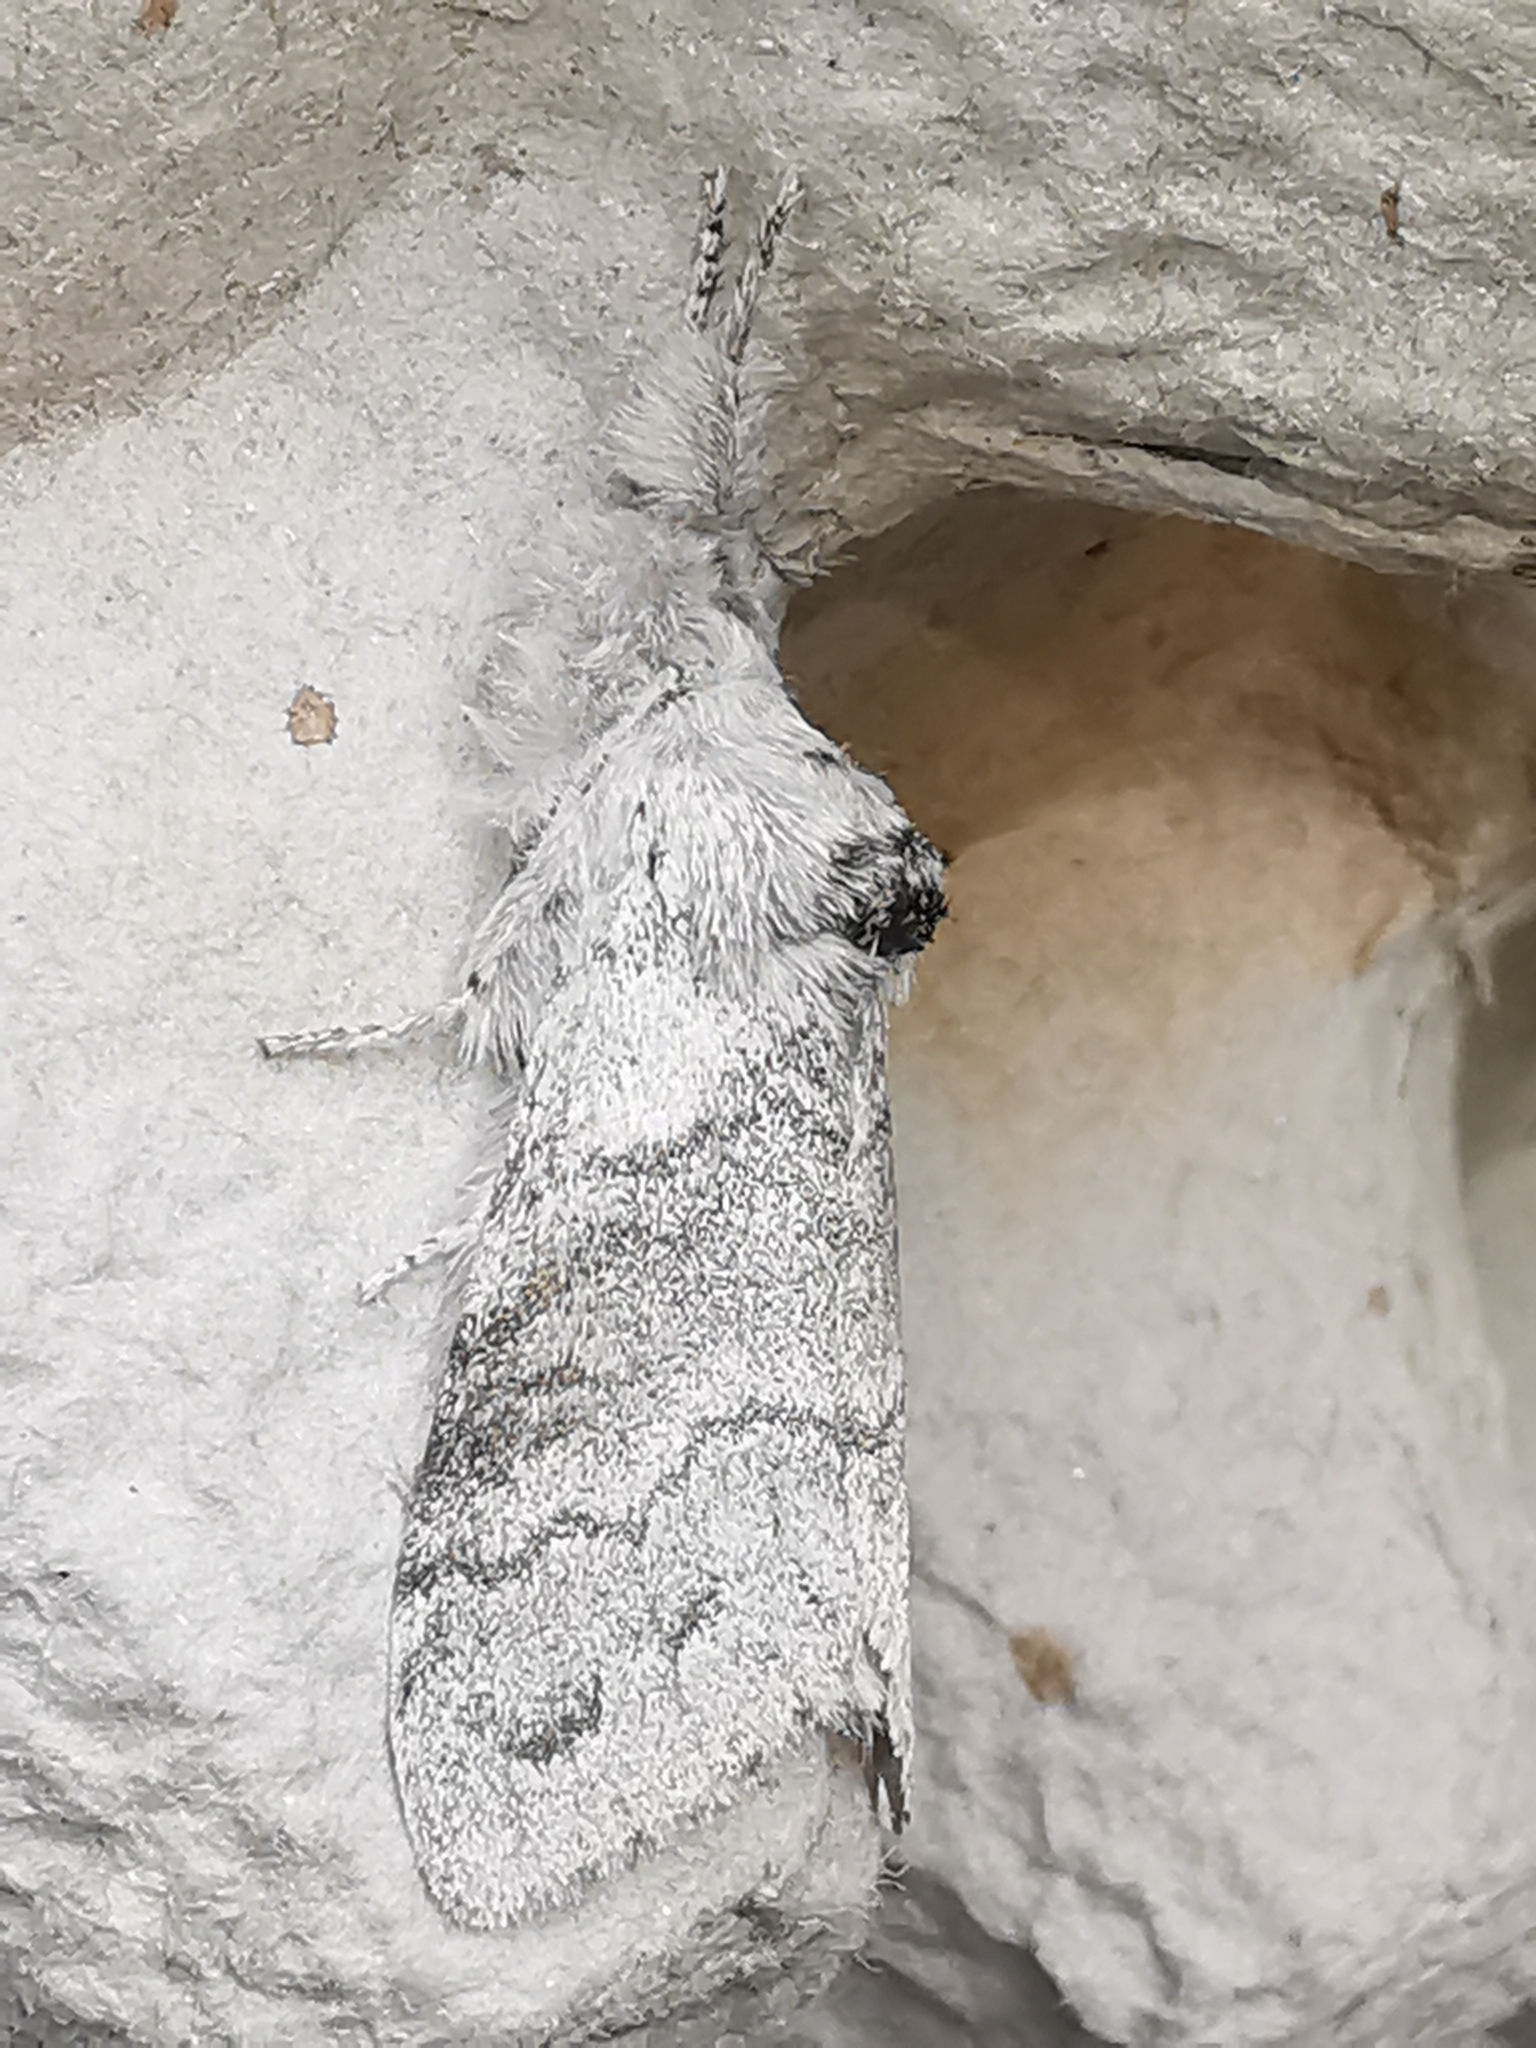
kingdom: Animalia
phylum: Arthropoda
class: Insecta
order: Lepidoptera
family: Erebidae
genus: Calliteara
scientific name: Calliteara pudibunda
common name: Pale tussock
